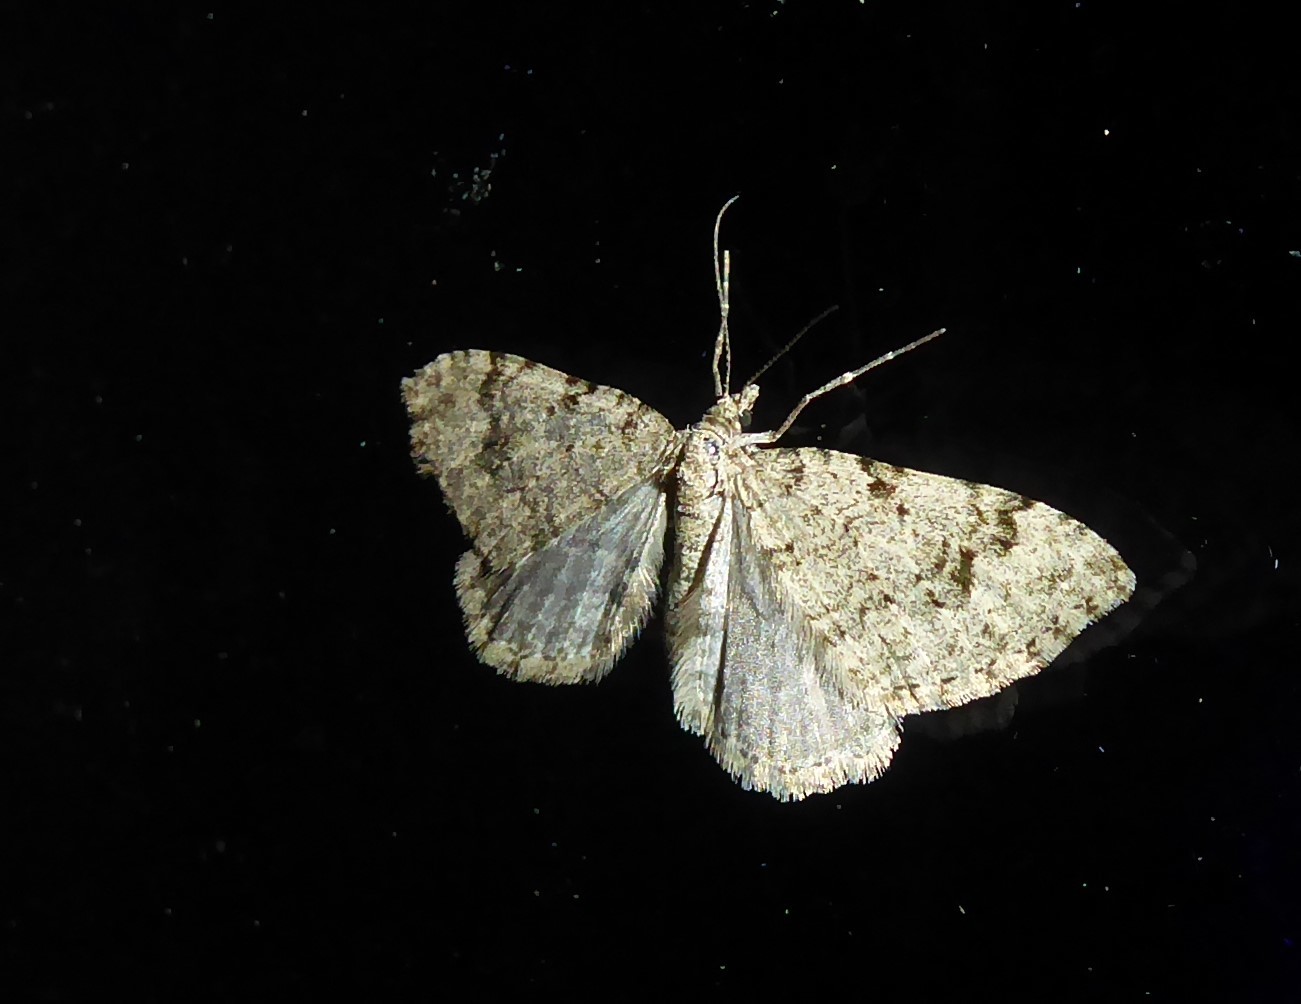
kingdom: Animalia
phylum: Arthropoda
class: Insecta
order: Lepidoptera
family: Geometridae
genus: Helastia
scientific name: Helastia cinerearia
